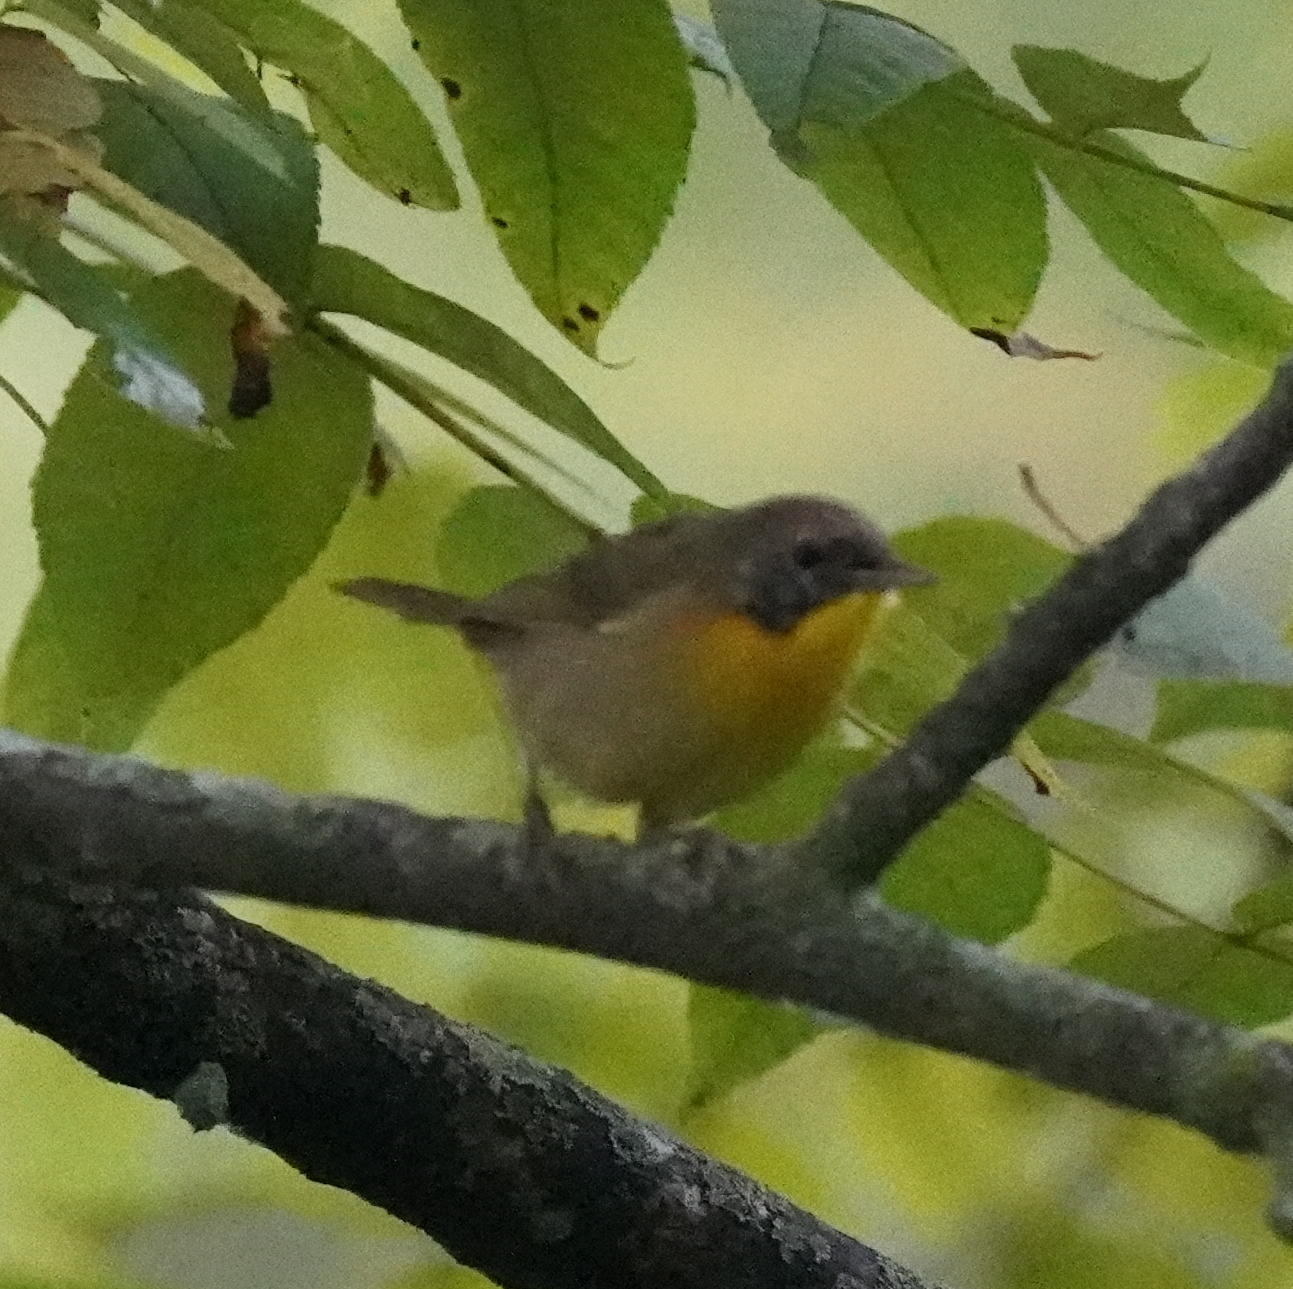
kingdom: Animalia
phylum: Chordata
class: Aves
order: Passeriformes
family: Parulidae
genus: Geothlypis
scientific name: Geothlypis trichas
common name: Common yellowthroat
